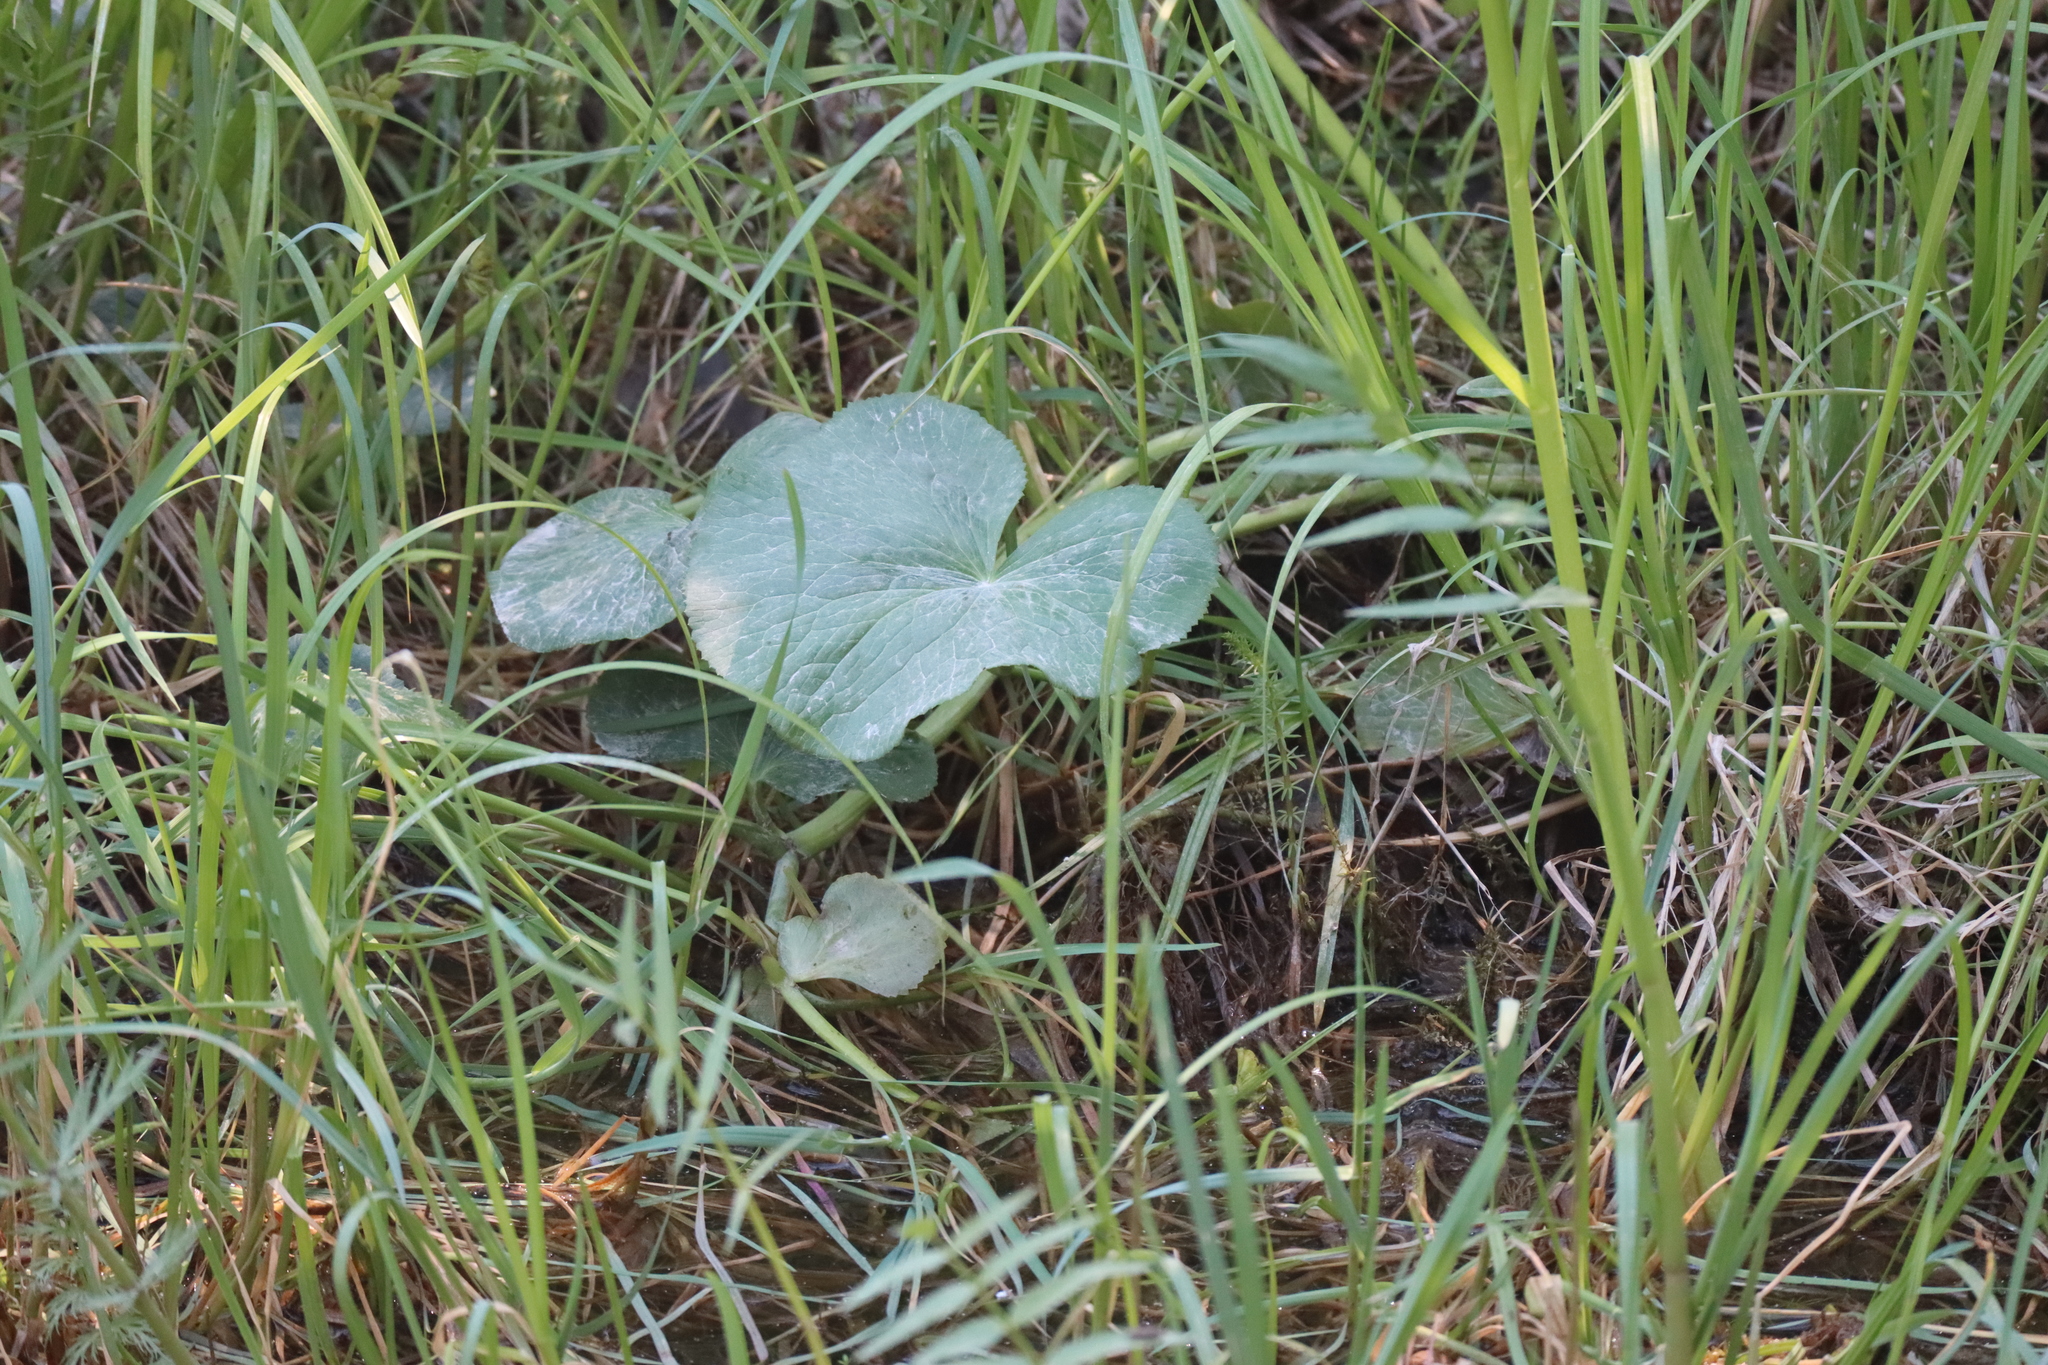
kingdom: Plantae
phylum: Tracheophyta
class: Magnoliopsida
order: Ranunculales
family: Ranunculaceae
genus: Caltha
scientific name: Caltha palustris
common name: Marsh marigold
